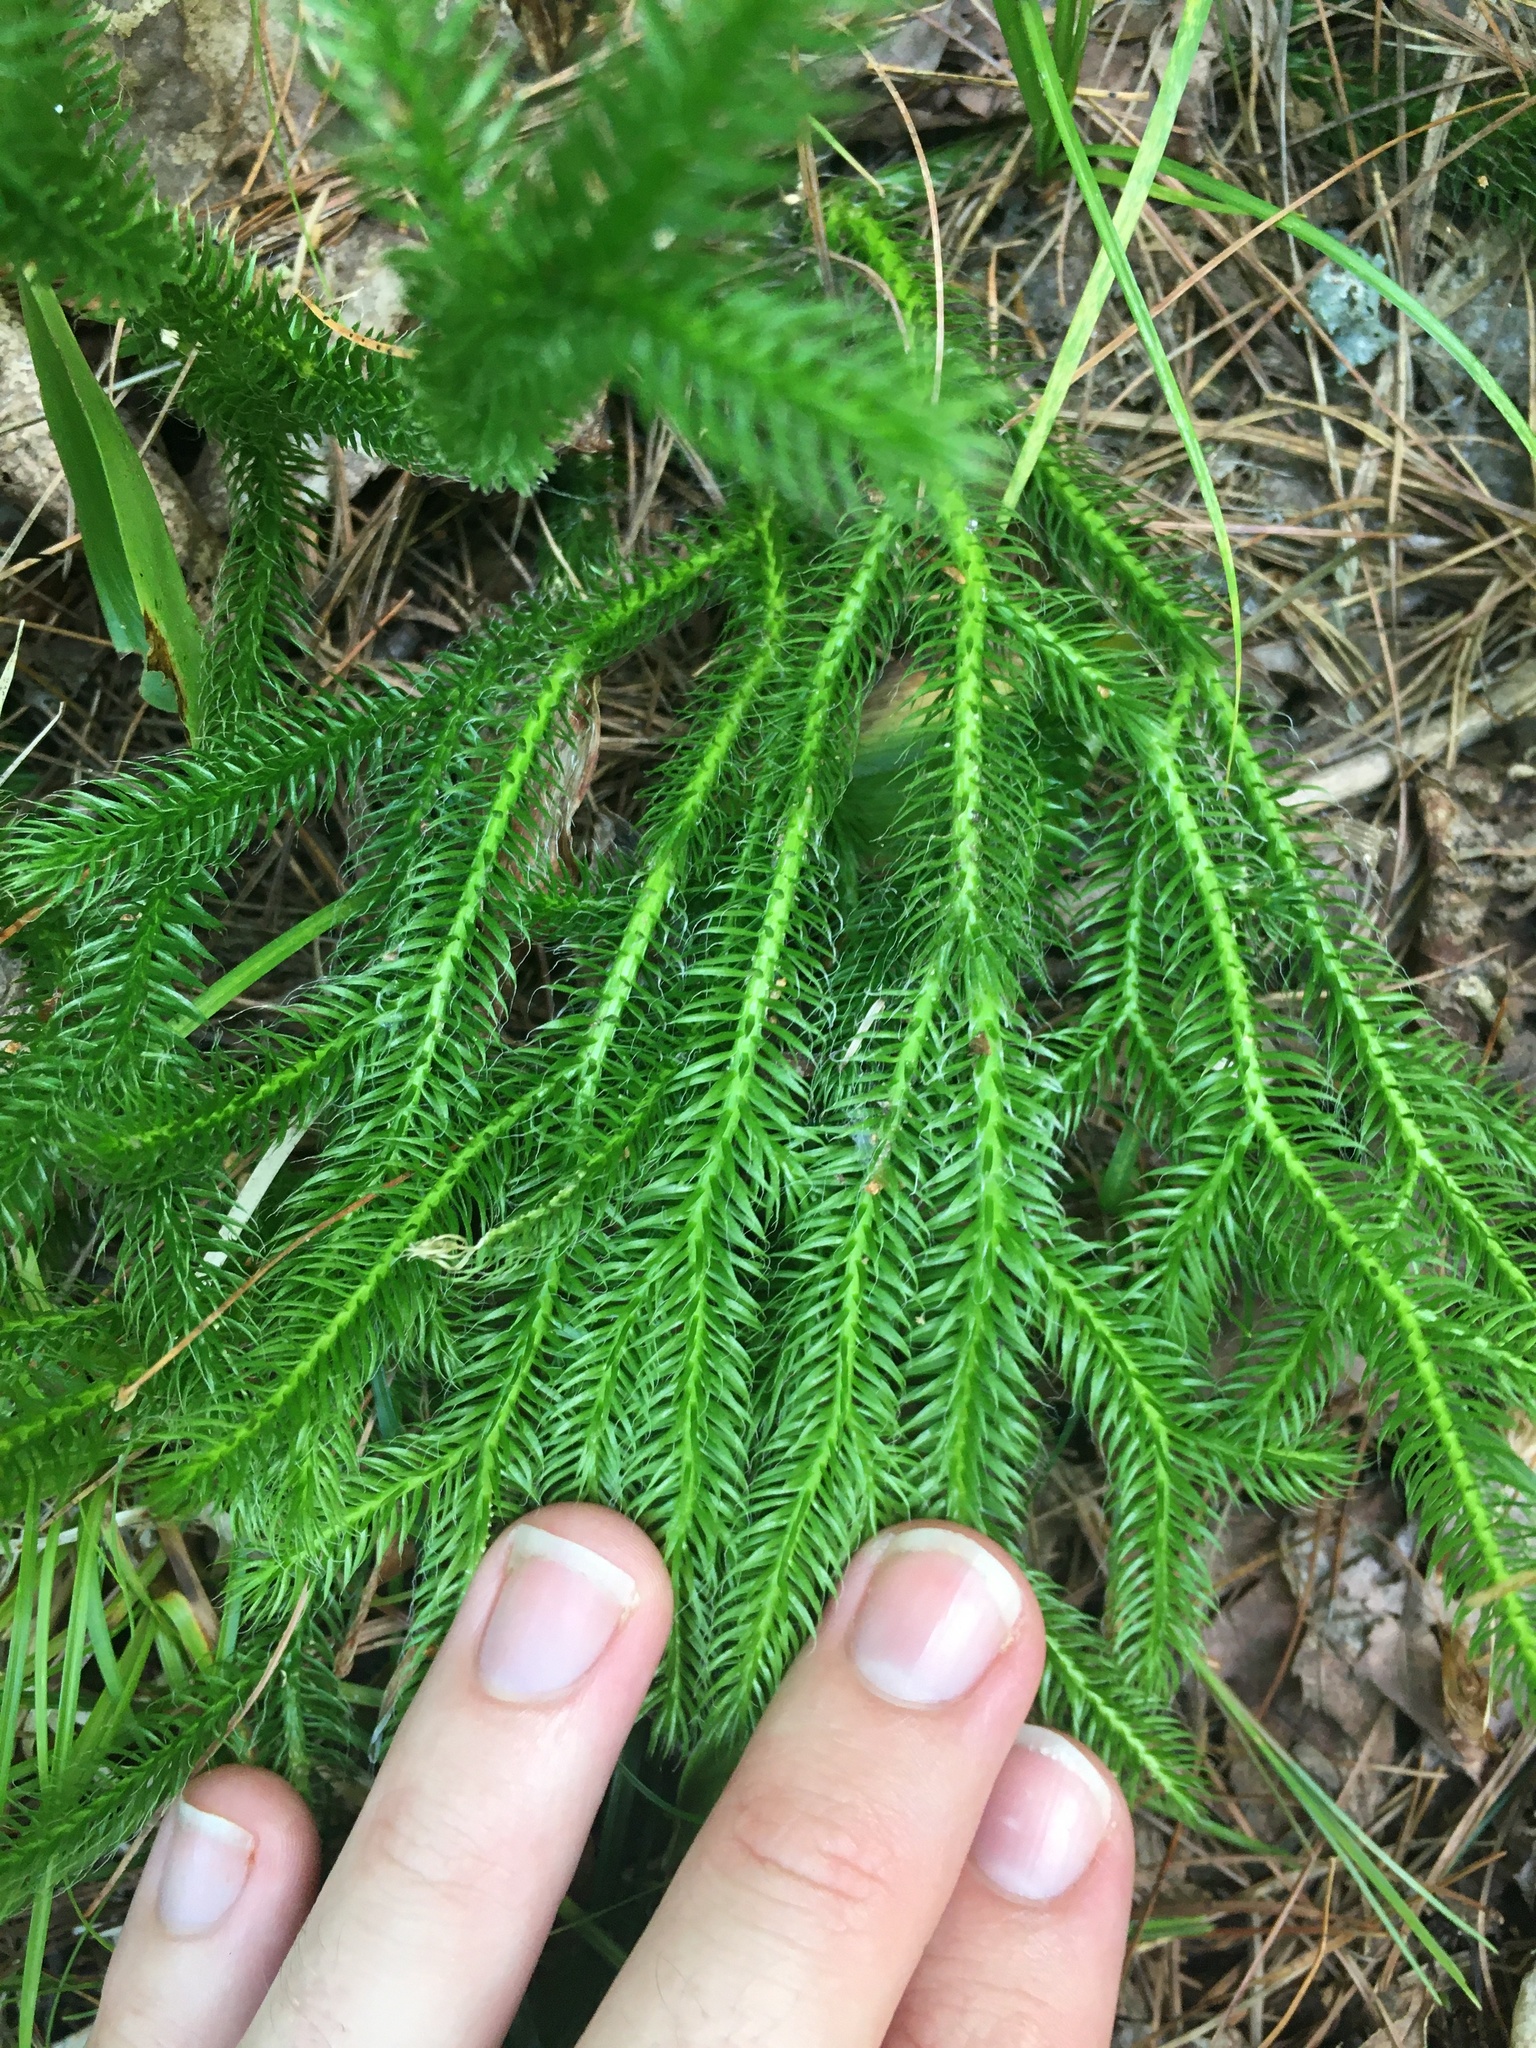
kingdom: Plantae
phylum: Tracheophyta
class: Lycopodiopsida
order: Lycopodiales
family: Lycopodiaceae
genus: Lycopodium
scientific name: Lycopodium clavatum
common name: Stag's-horn clubmoss
